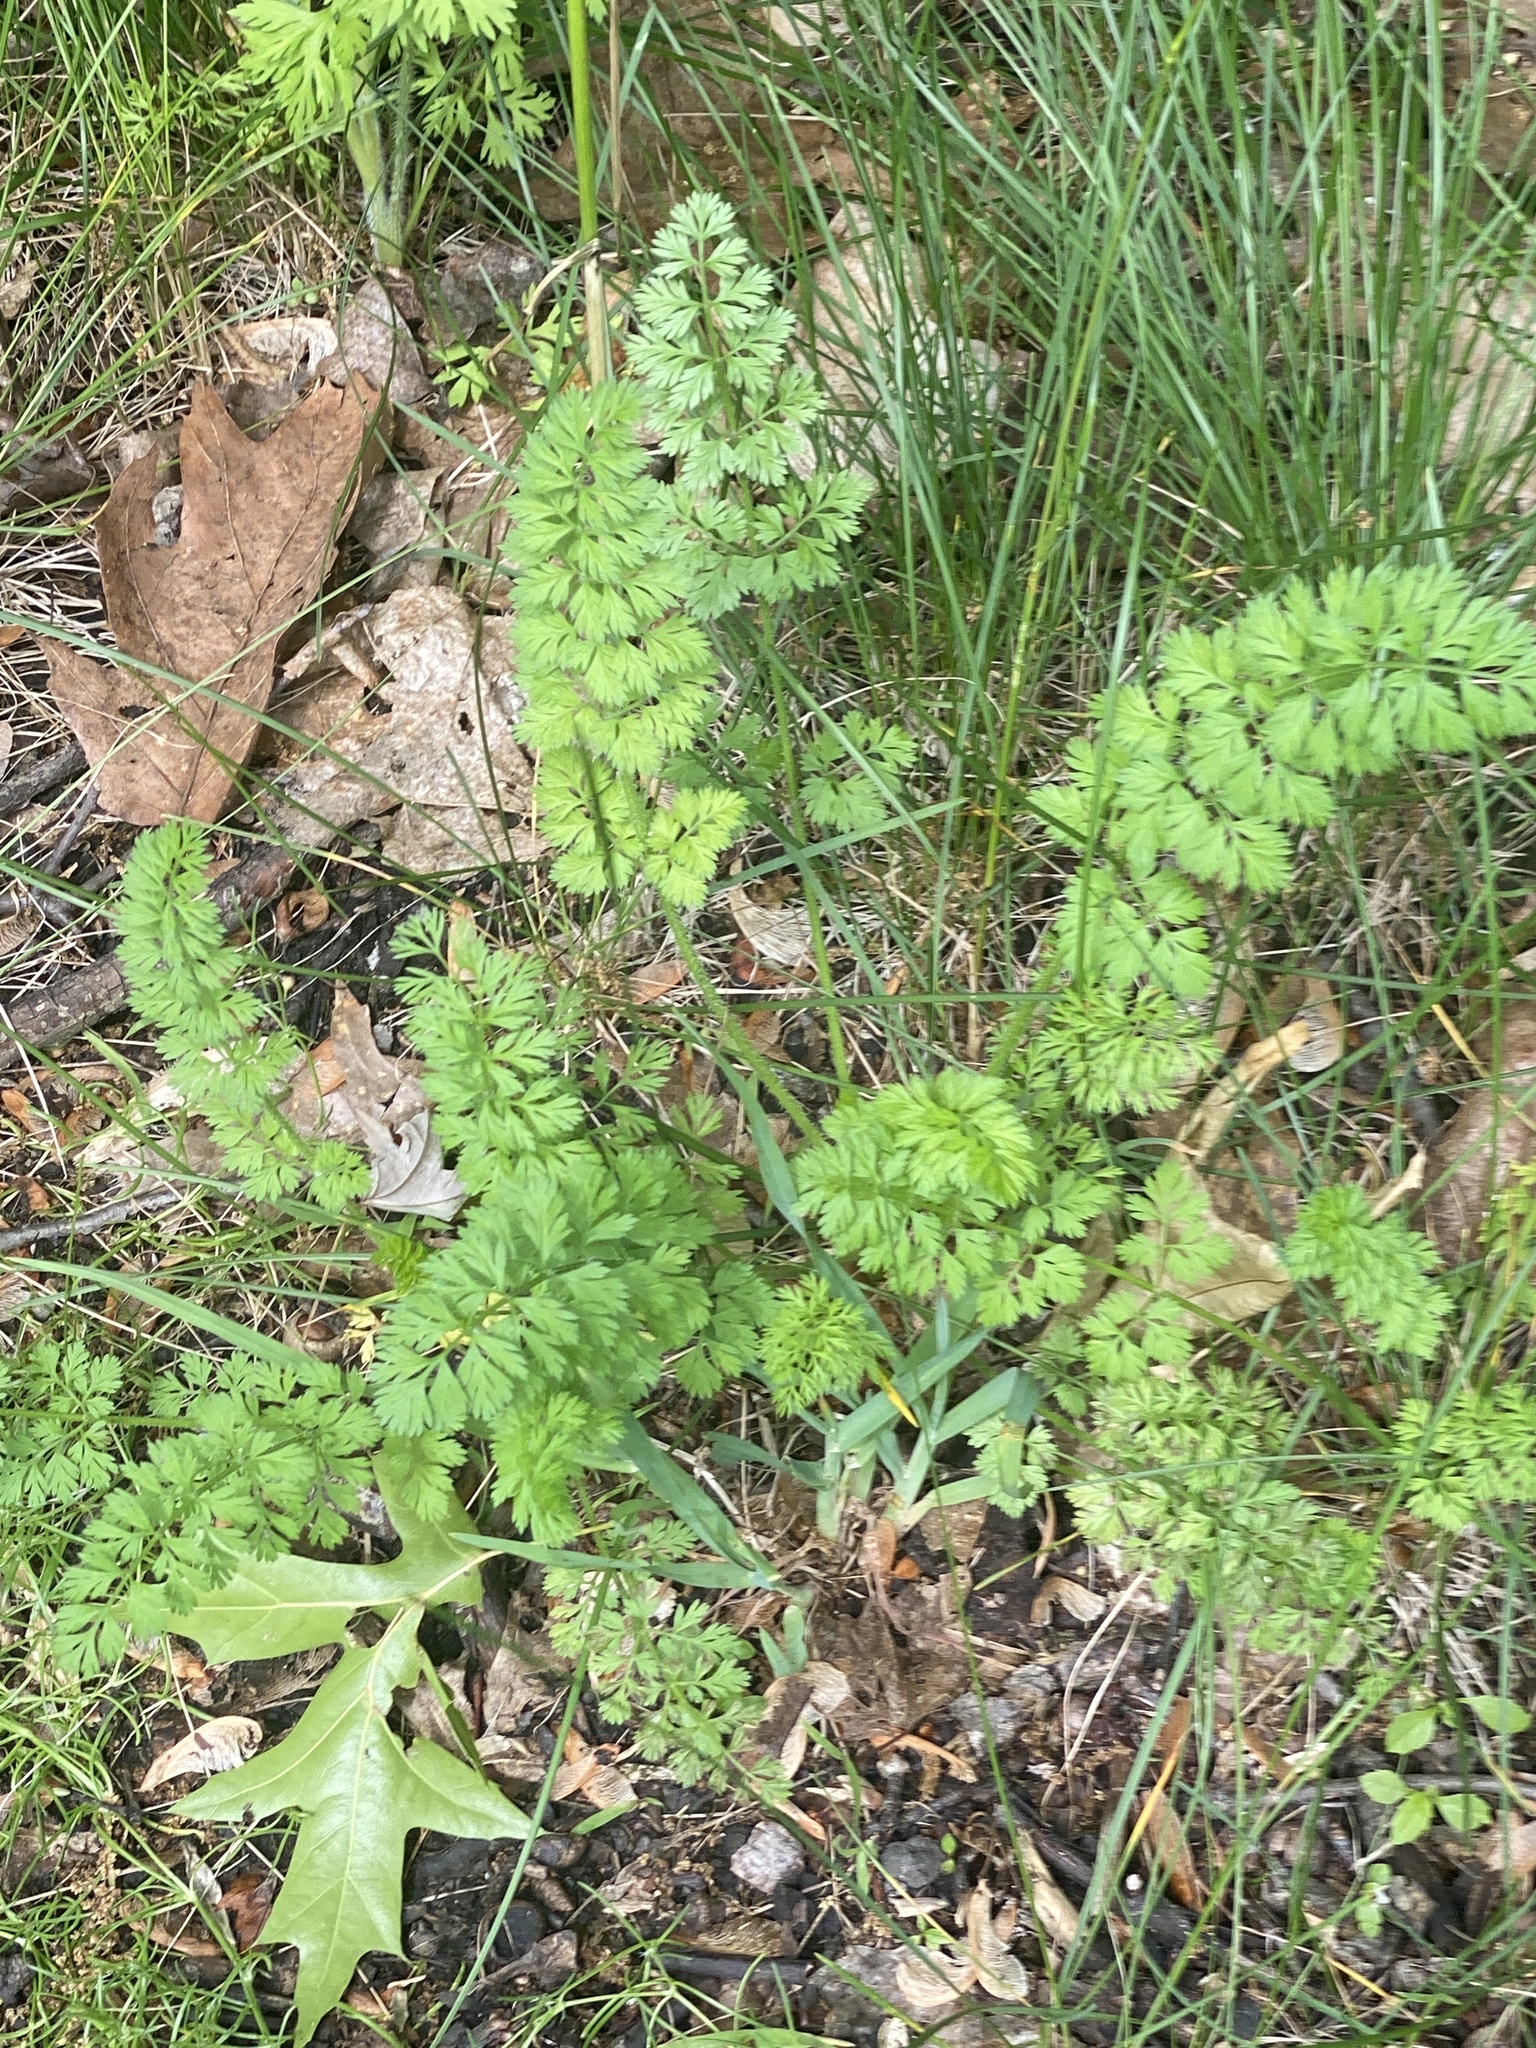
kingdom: Plantae
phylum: Tracheophyta
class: Magnoliopsida
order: Apiales
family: Apiaceae
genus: Daucus
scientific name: Daucus carota
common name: Wild carrot
